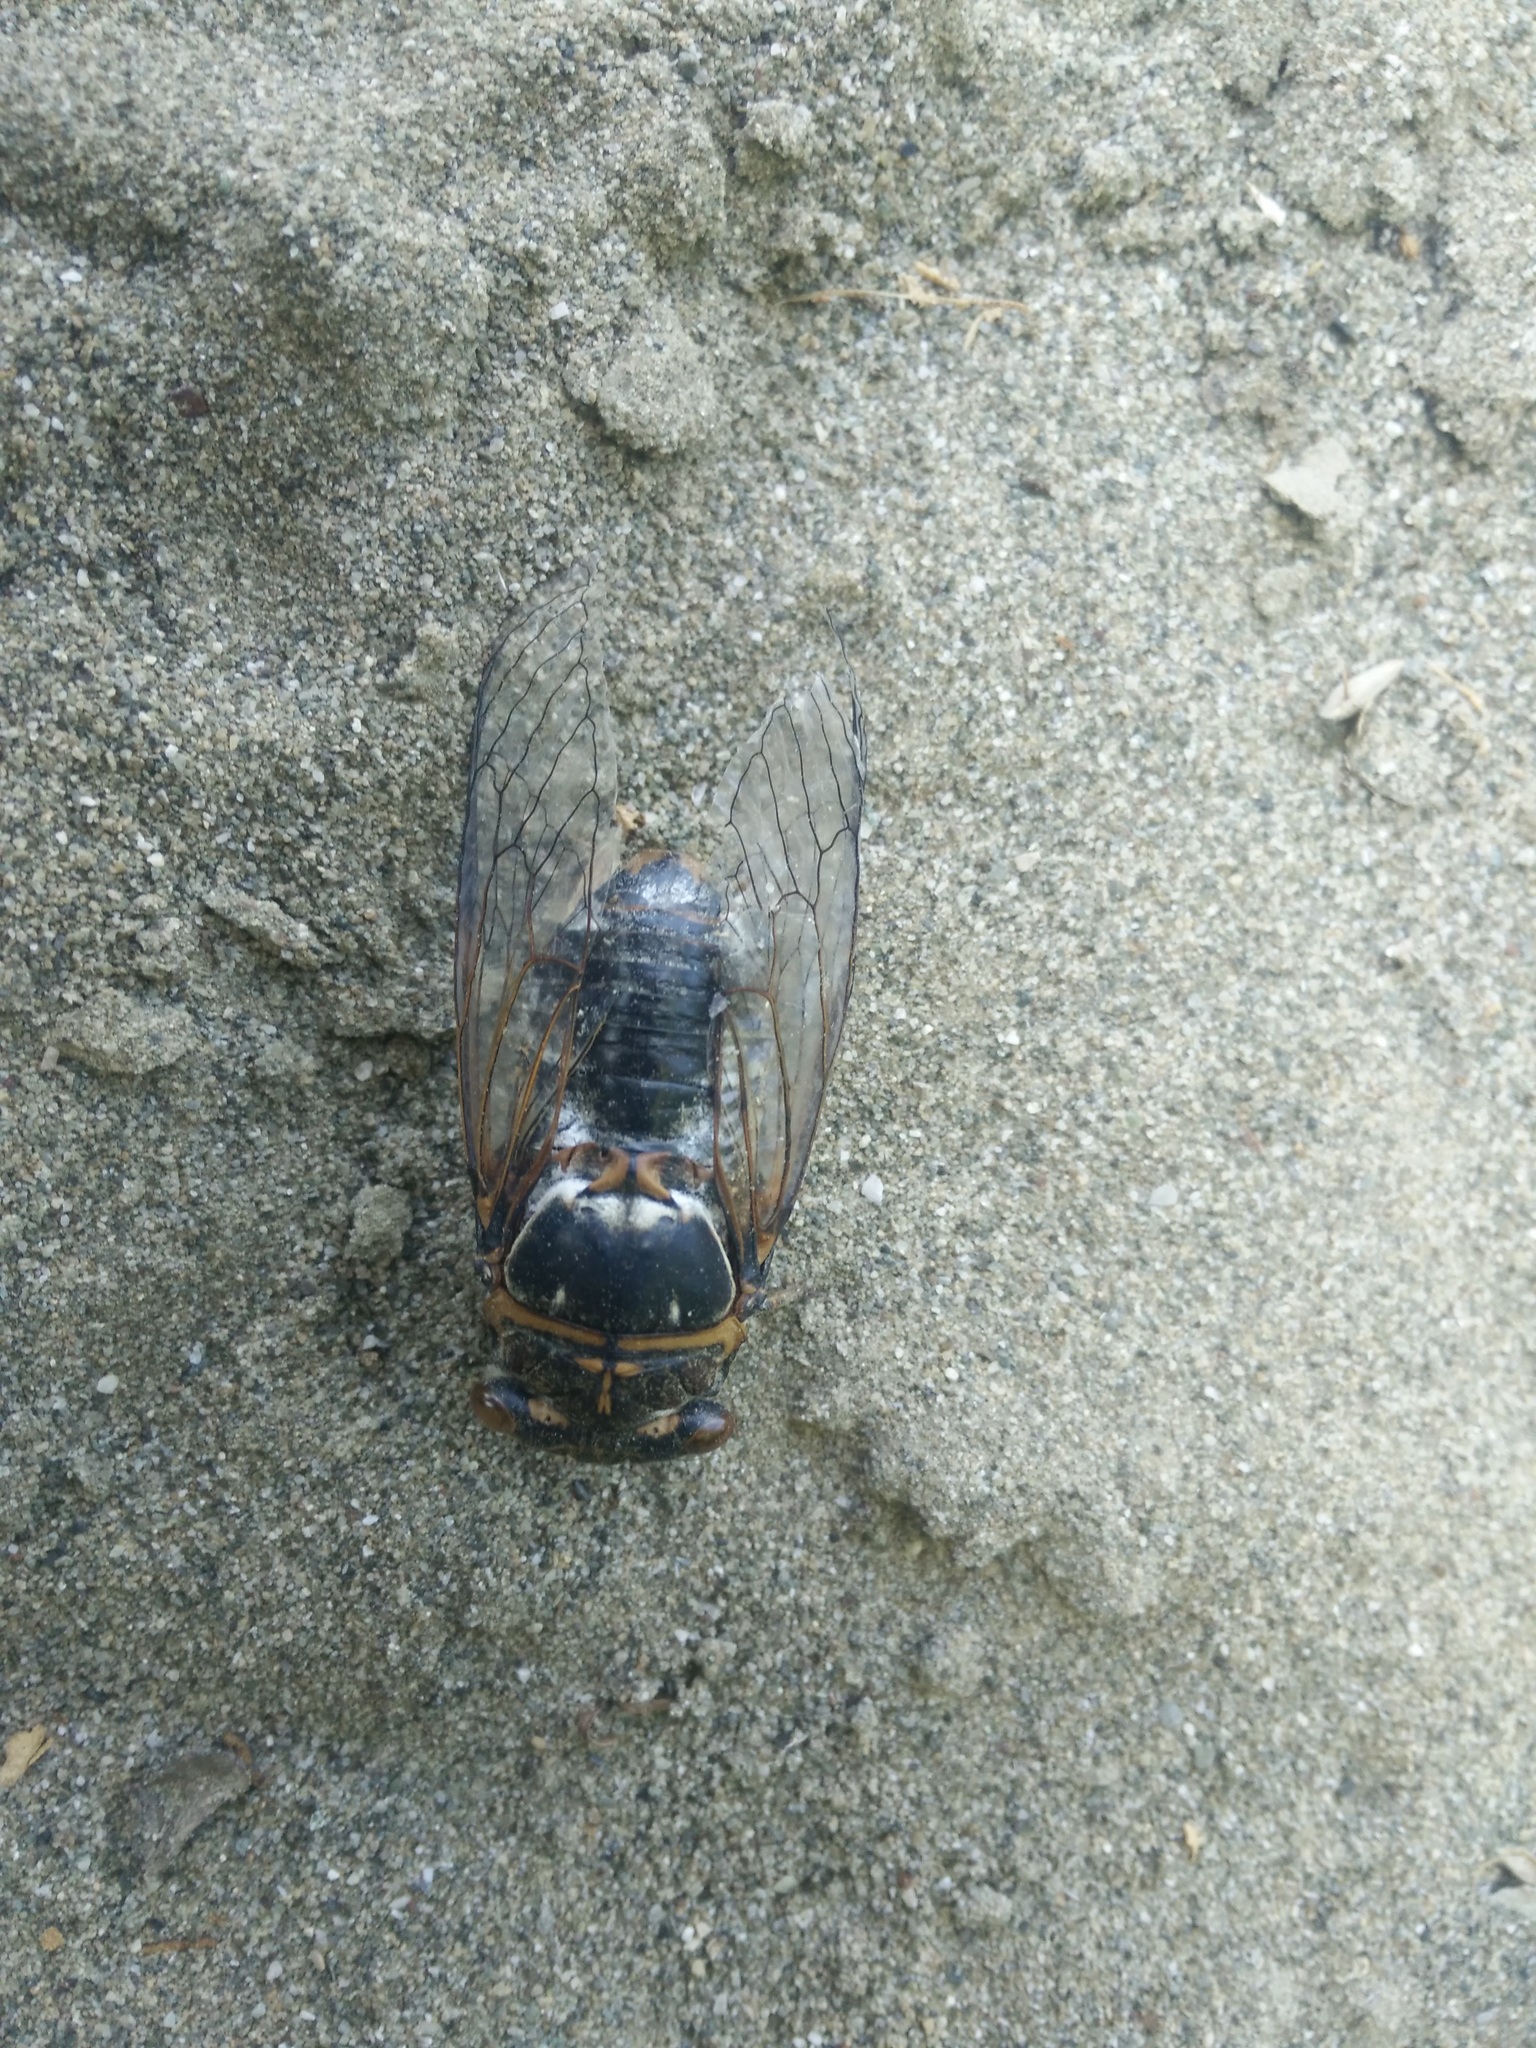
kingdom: Animalia
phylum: Arthropoda
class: Insecta
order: Hemiptera
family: Cicadidae
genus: Lyristes
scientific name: Lyristes plebejus
